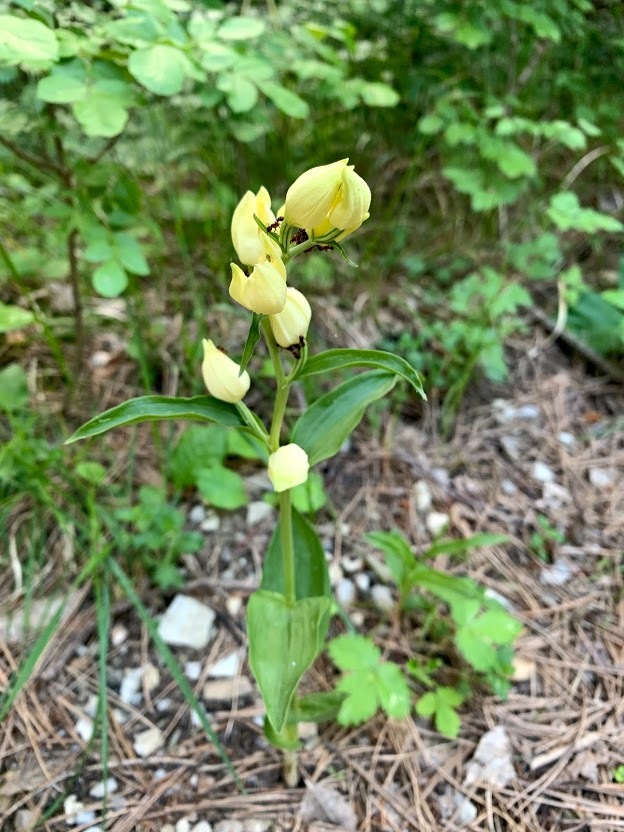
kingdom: Plantae
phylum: Tracheophyta
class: Liliopsida
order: Asparagales
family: Orchidaceae
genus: Cephalanthera
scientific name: Cephalanthera damasonium
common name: White helleborine
